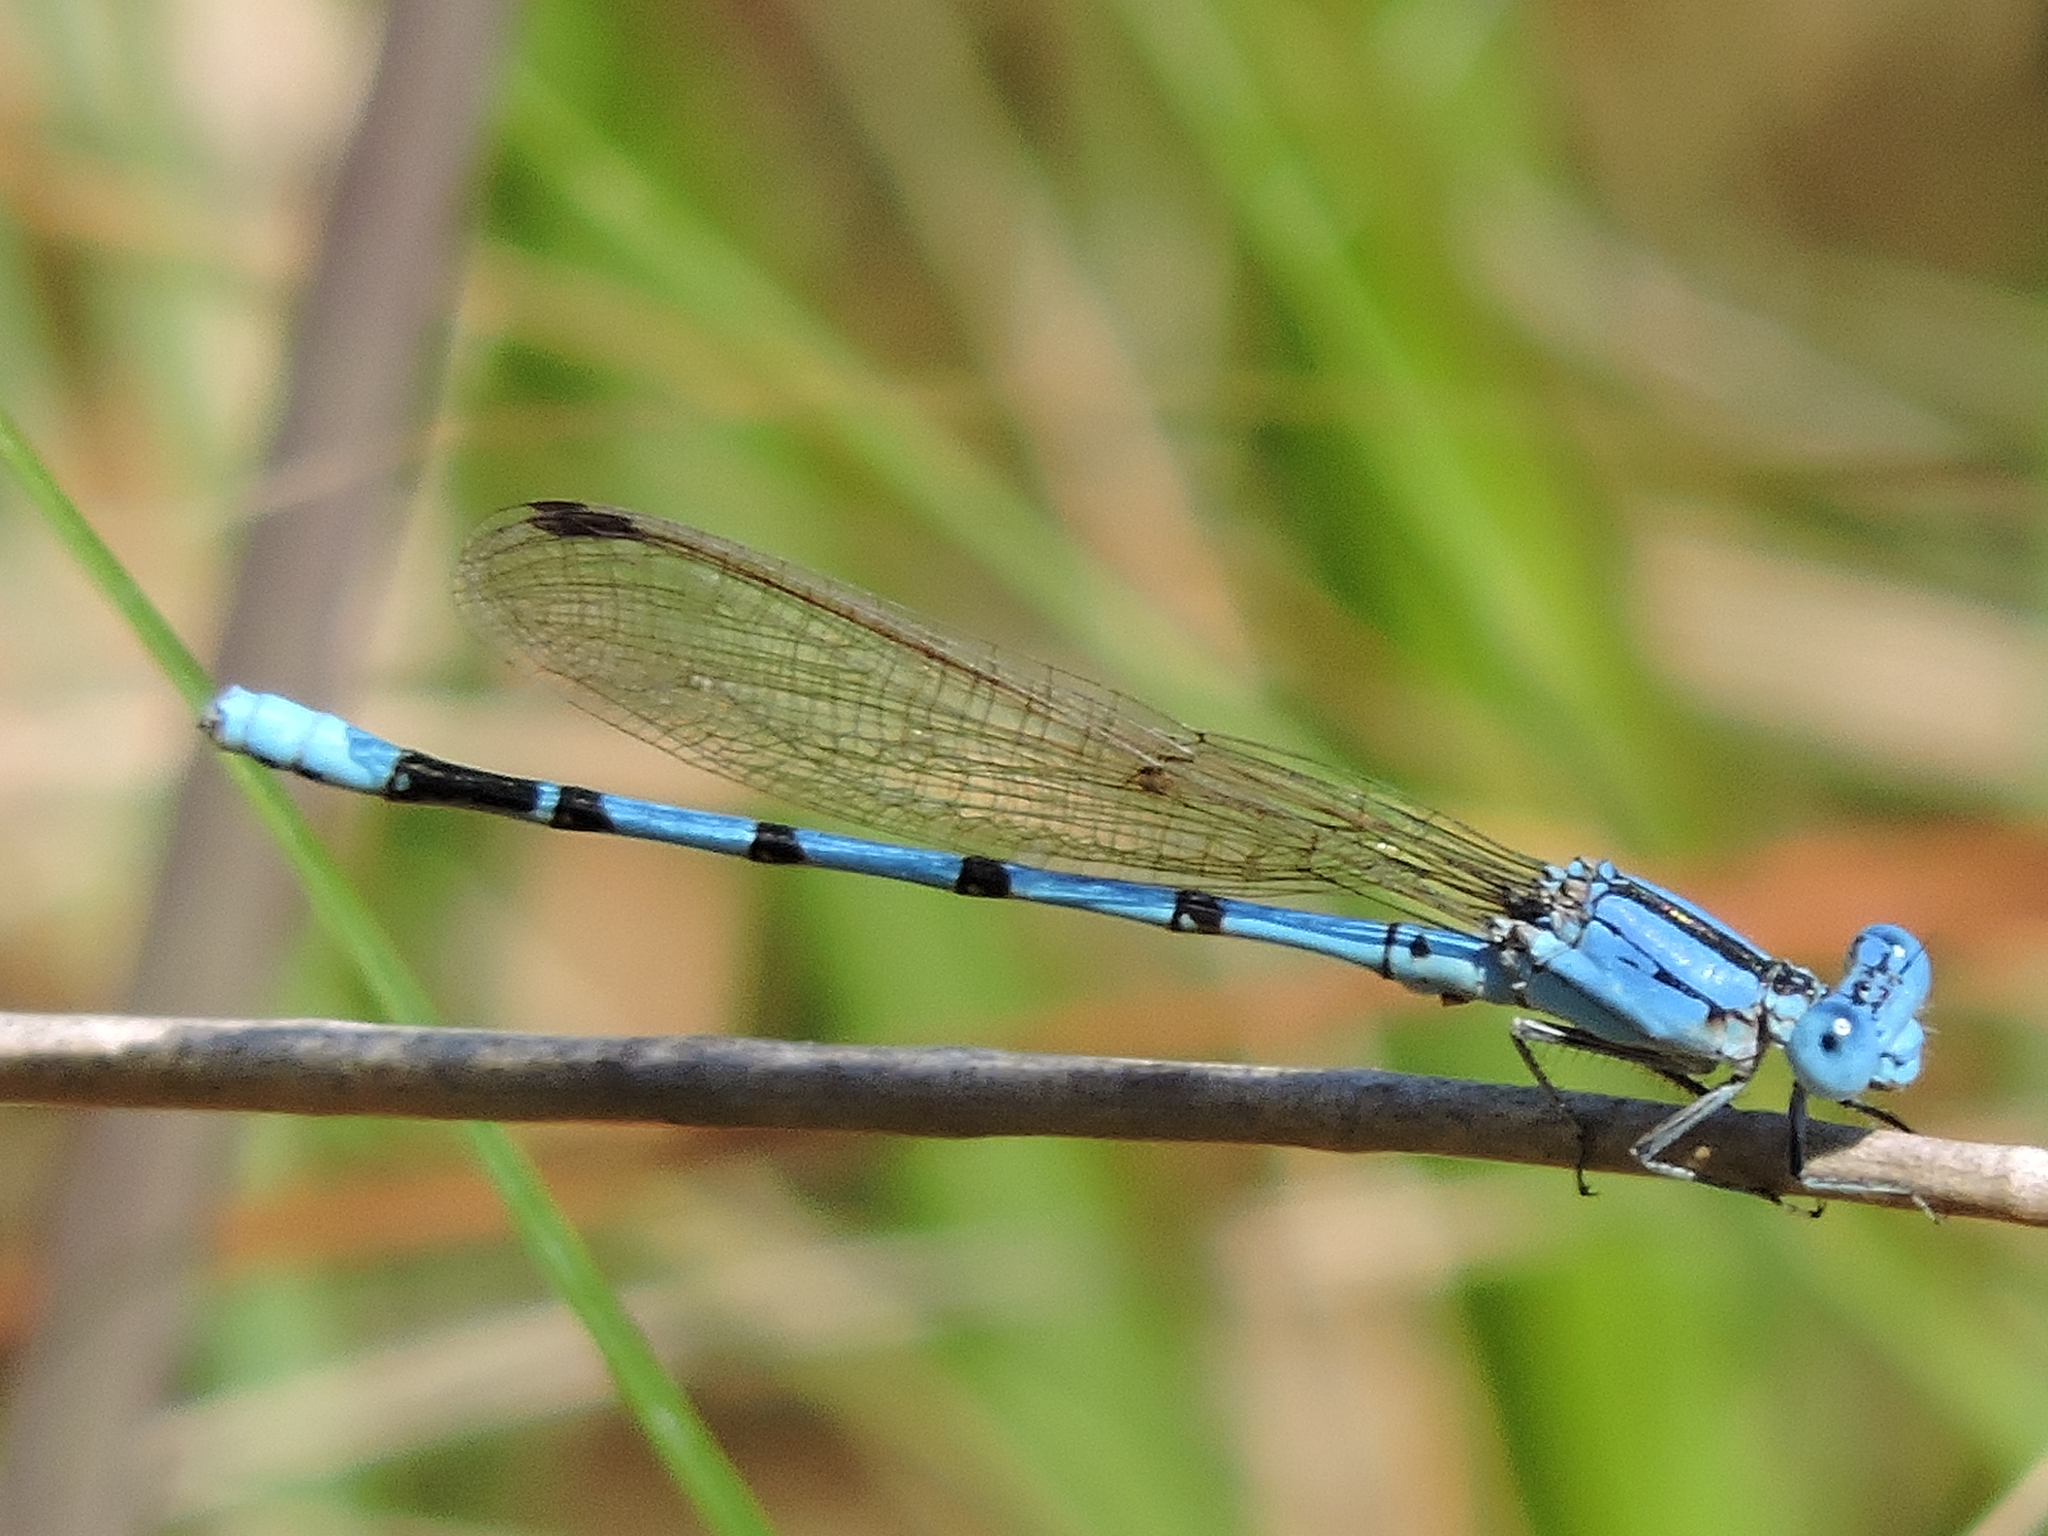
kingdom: Animalia
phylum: Arthropoda
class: Insecta
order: Odonata
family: Coenagrionidae
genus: Argia
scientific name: Argia nahuana
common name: Aztec dancer
